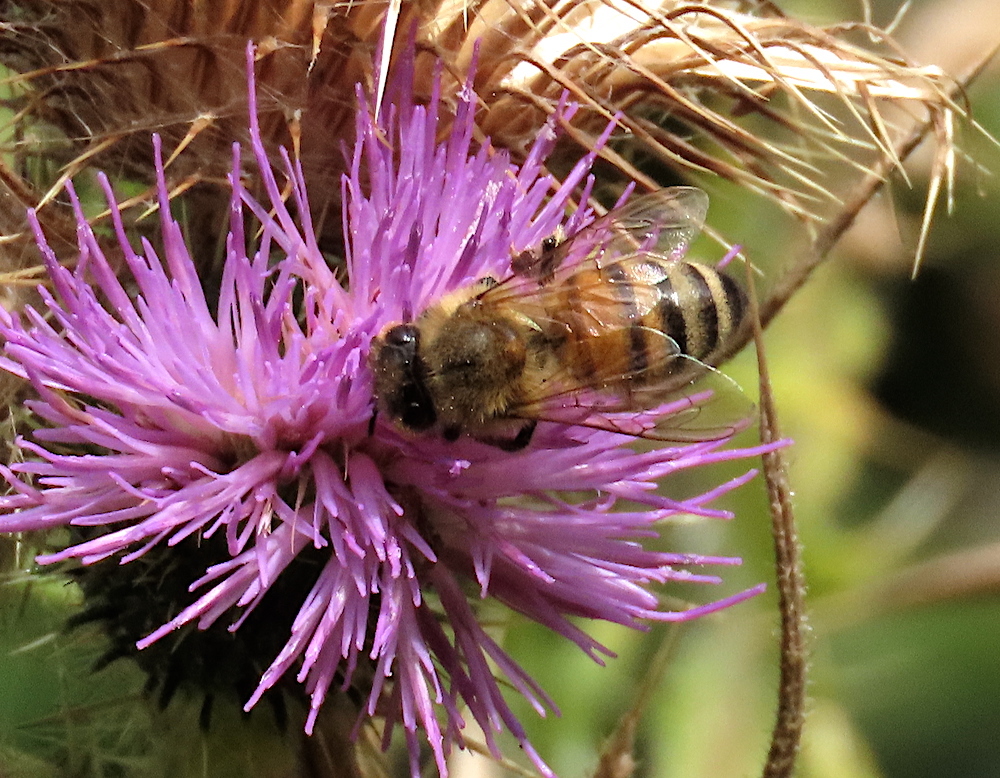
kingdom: Animalia
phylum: Arthropoda
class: Insecta
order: Hymenoptera
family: Apidae
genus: Apis
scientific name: Apis mellifera
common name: Honey bee
